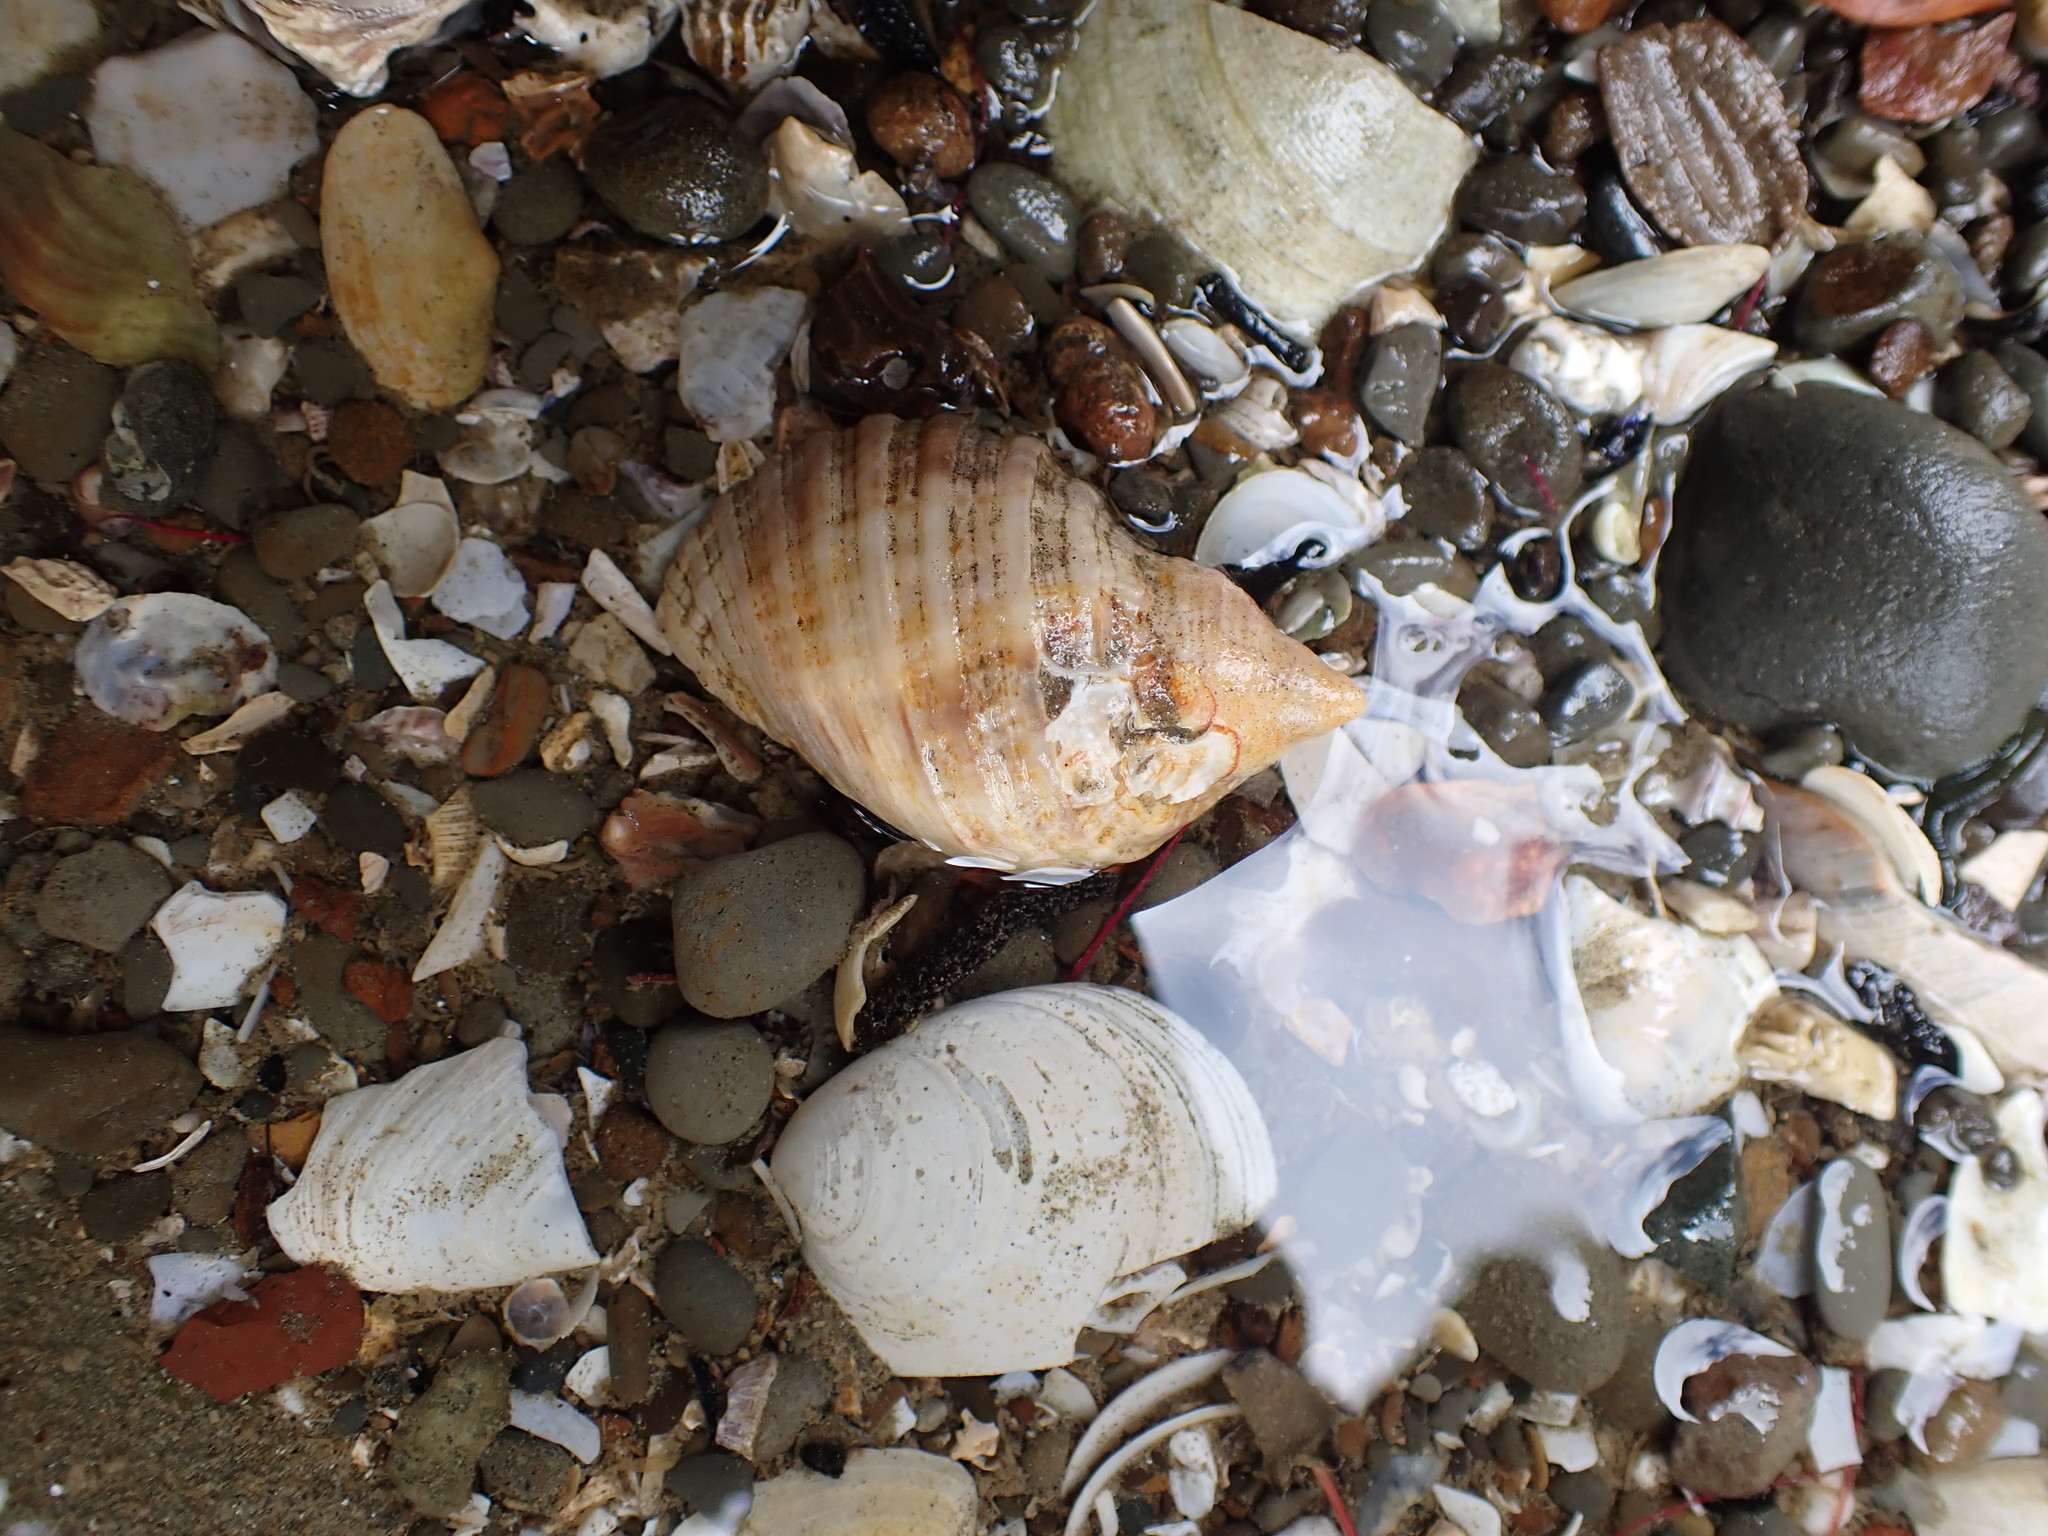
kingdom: Animalia
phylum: Mollusca
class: Gastropoda
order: Neogastropoda
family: Muricidae
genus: Dicathais
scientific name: Dicathais orbita
